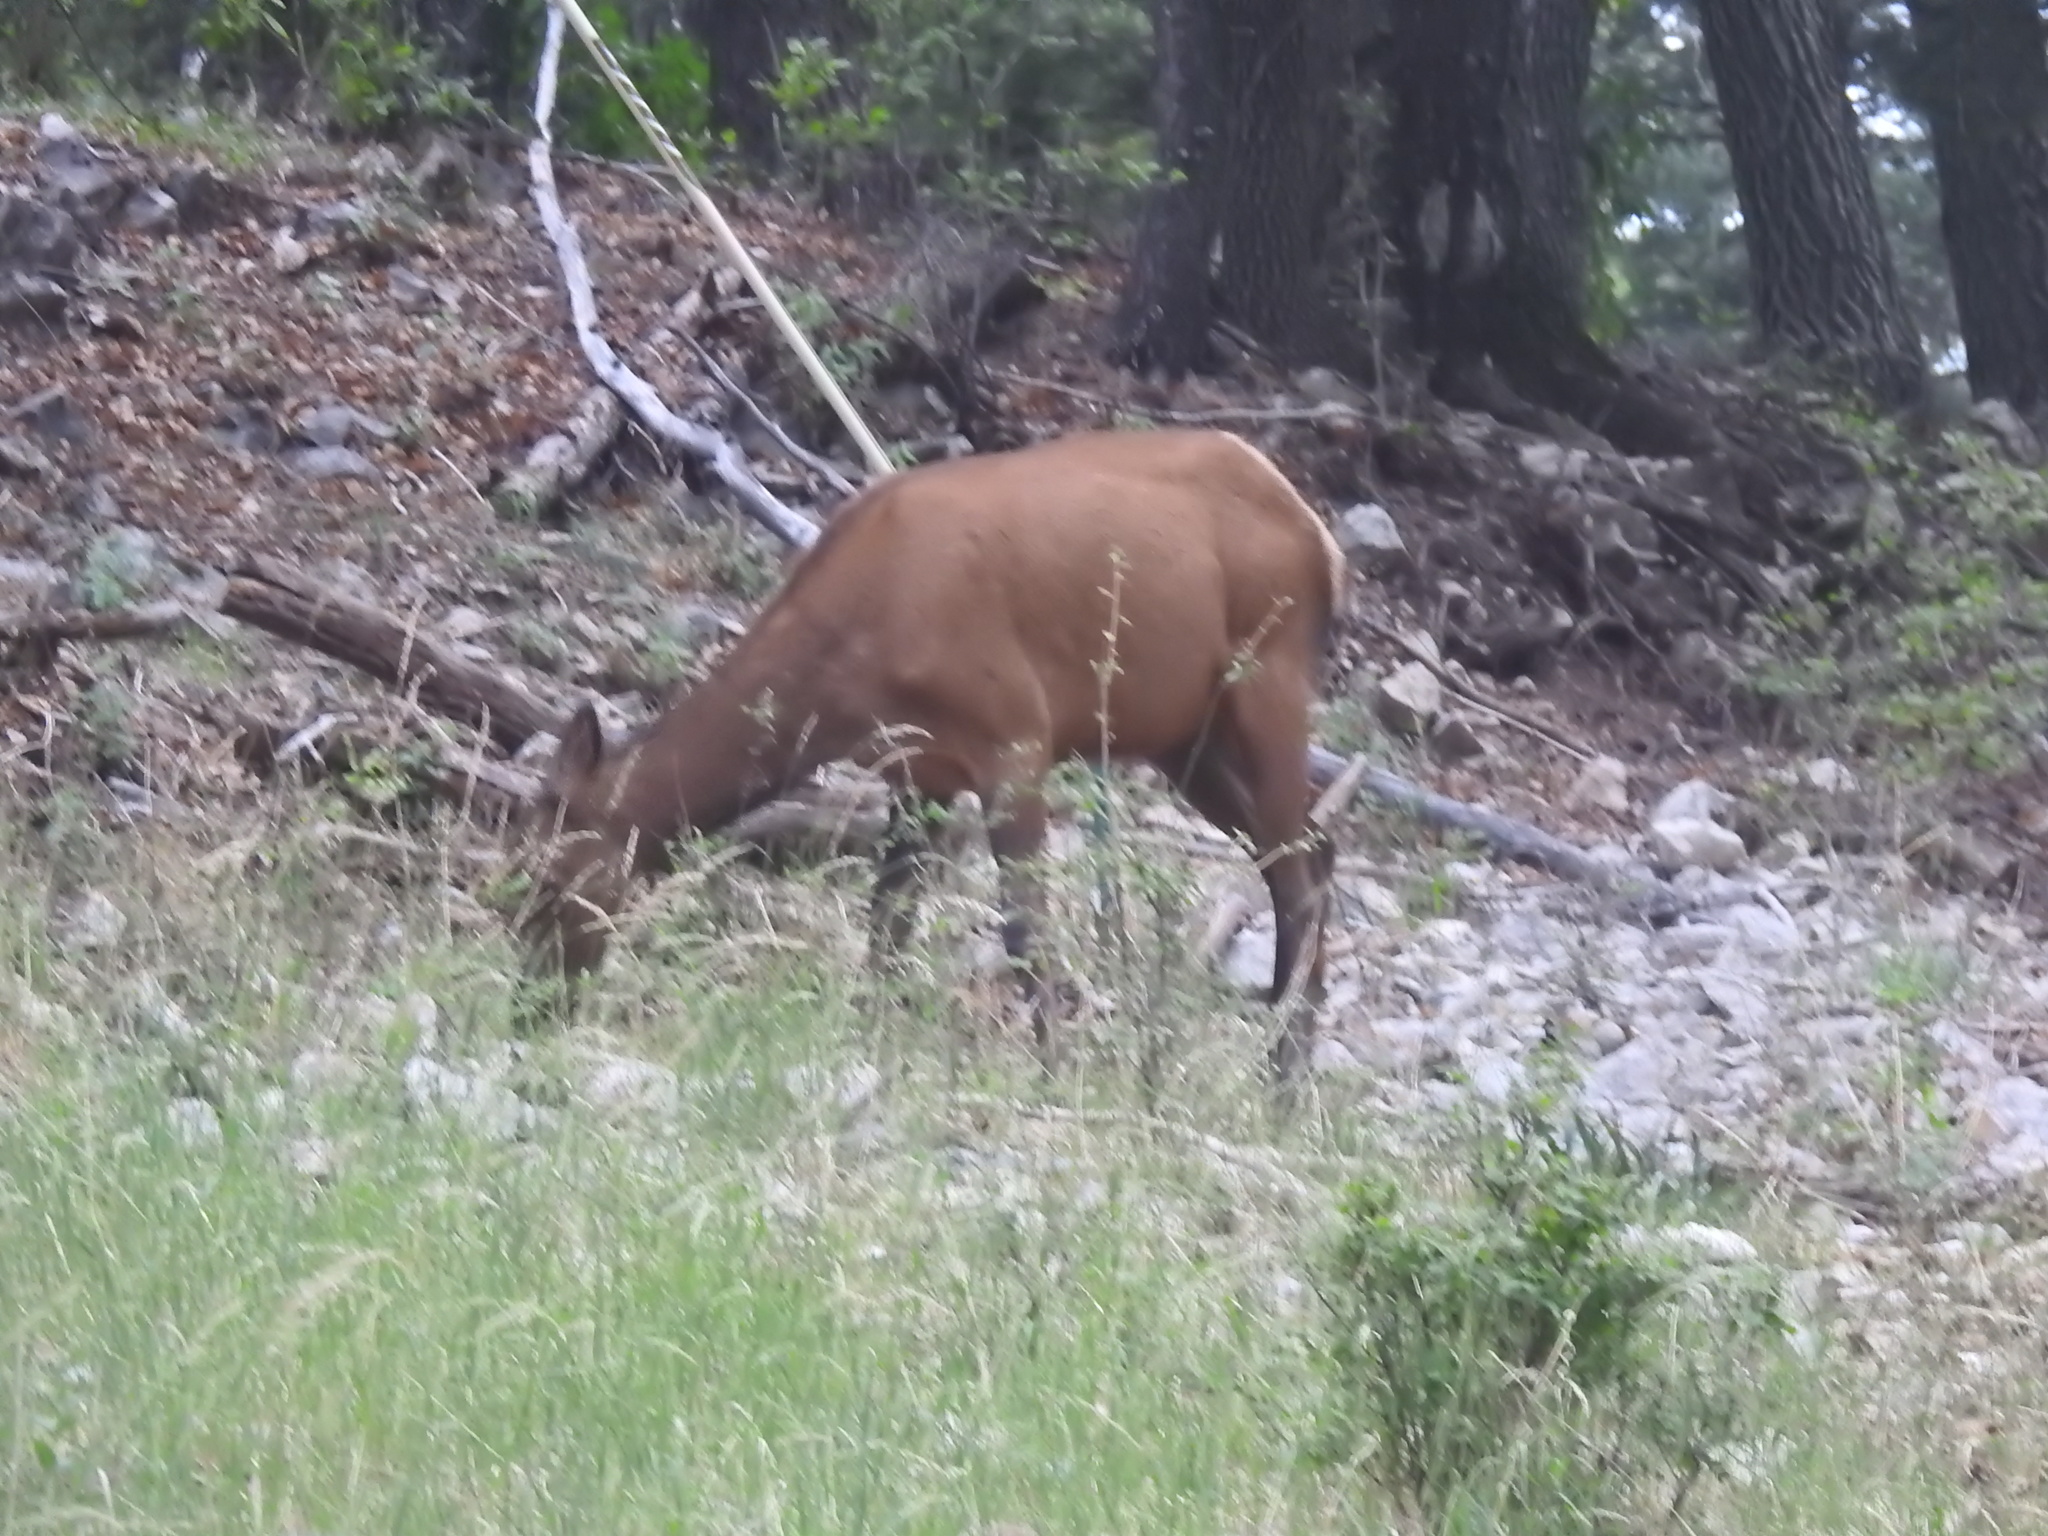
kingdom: Animalia
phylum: Chordata
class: Mammalia
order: Artiodactyla
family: Cervidae
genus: Cervus
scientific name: Cervus elaphus
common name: Red deer
